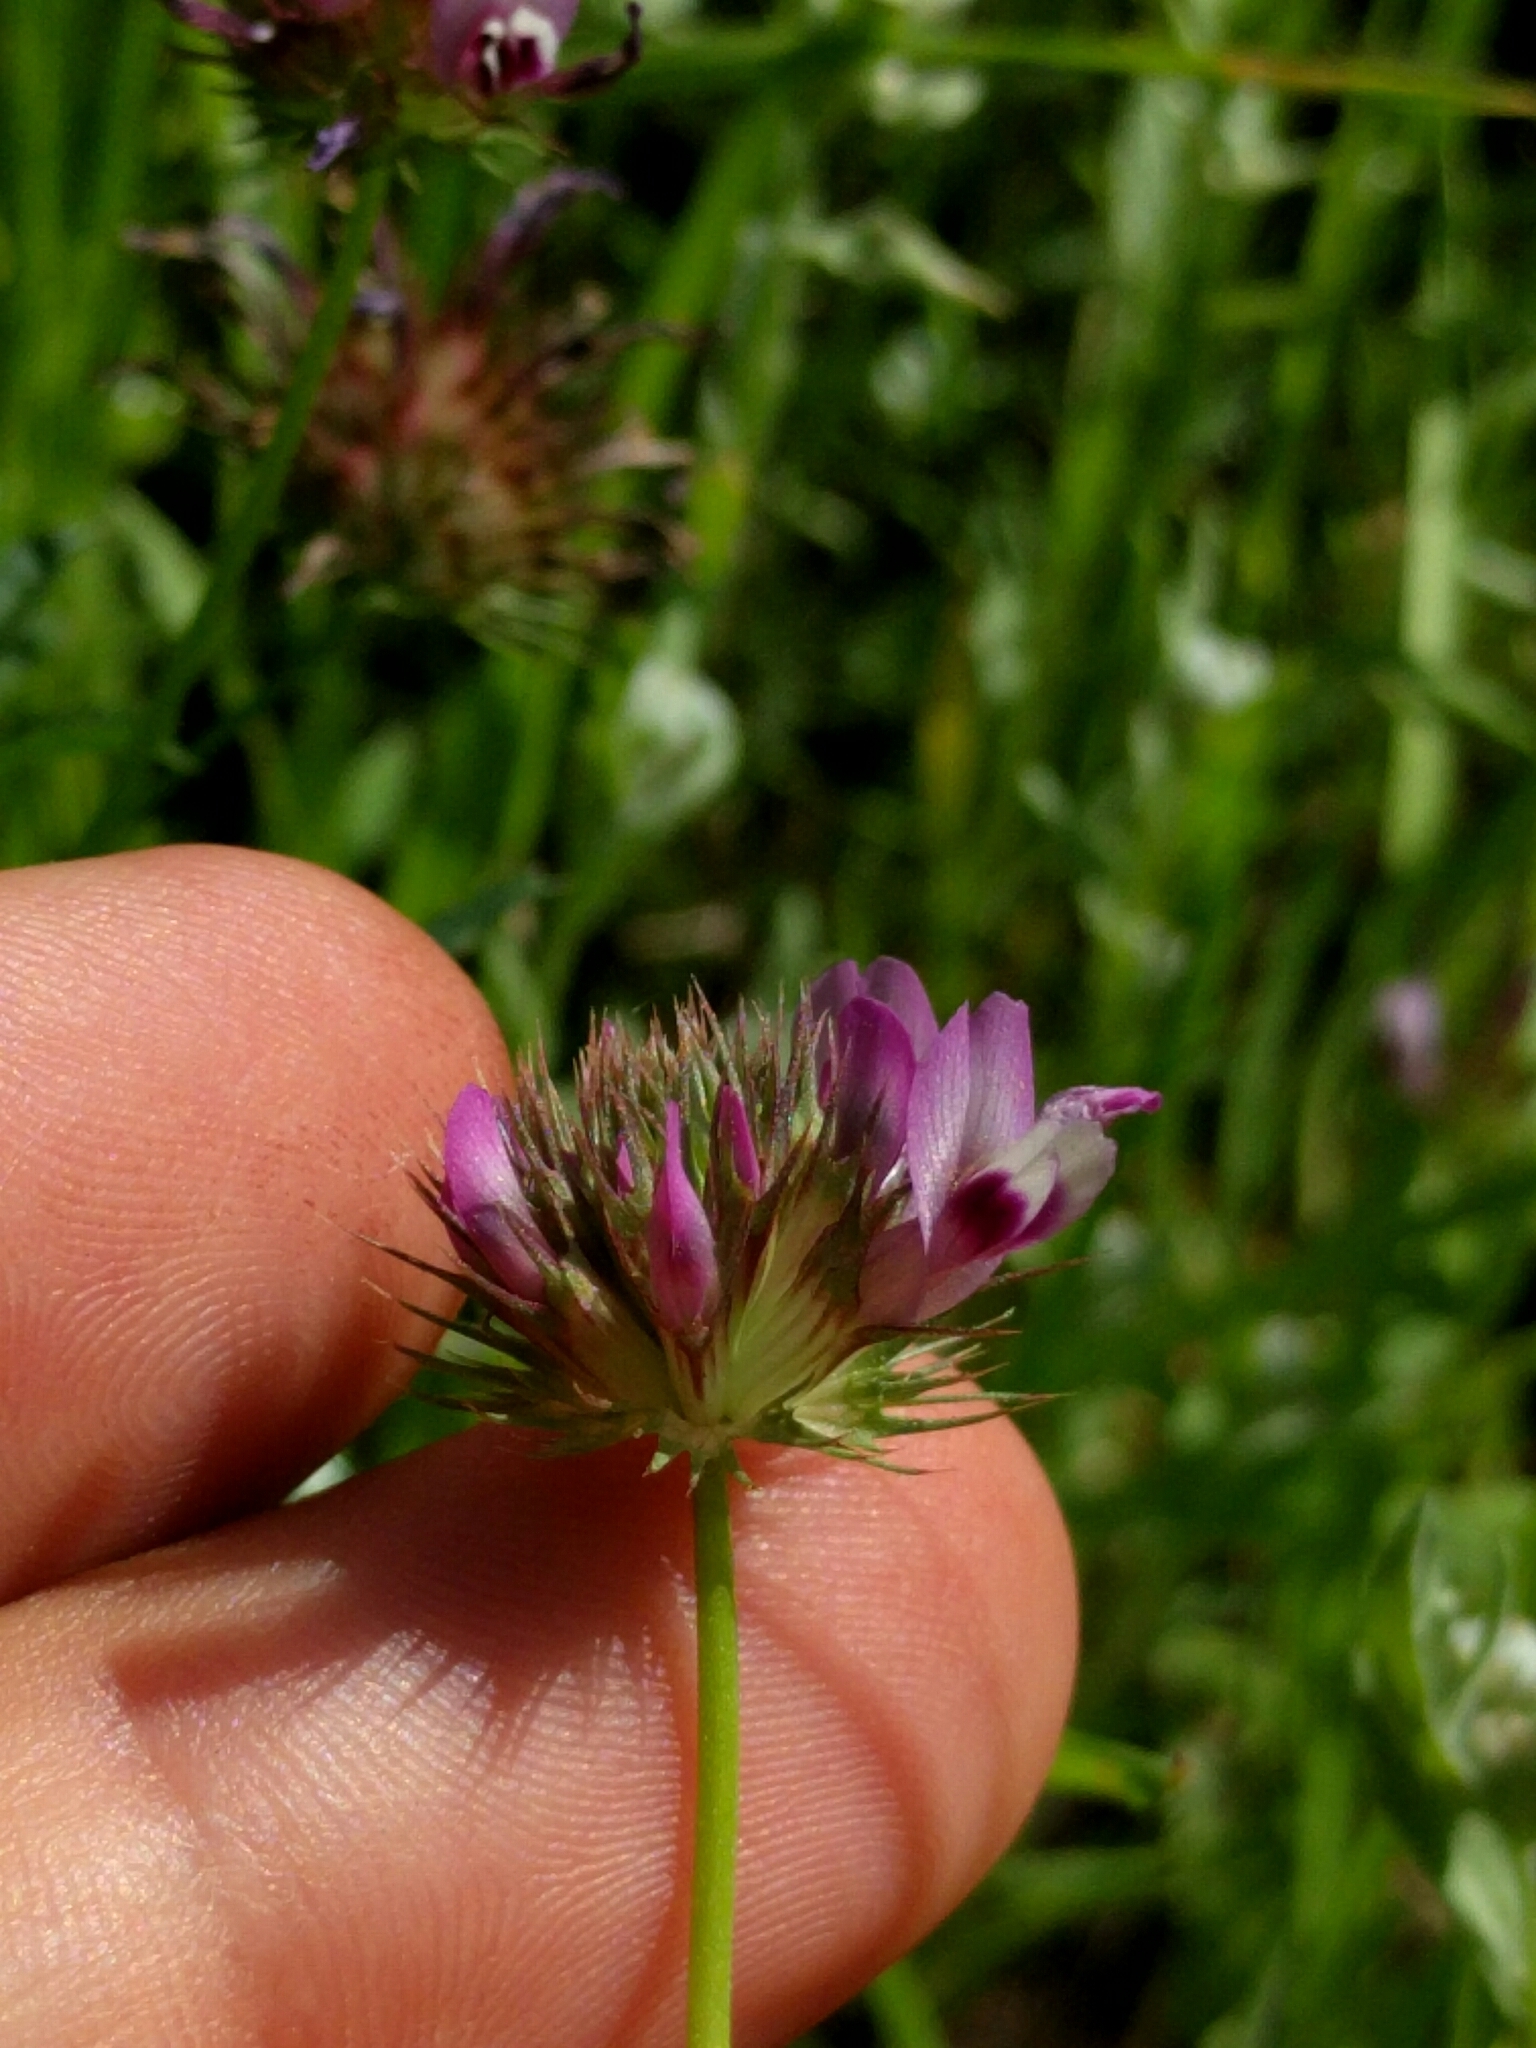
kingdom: Plantae
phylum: Tracheophyta
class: Magnoliopsida
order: Fabales
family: Fabaceae
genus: Trifolium
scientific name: Trifolium willdenovii
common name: Tomcat clover
